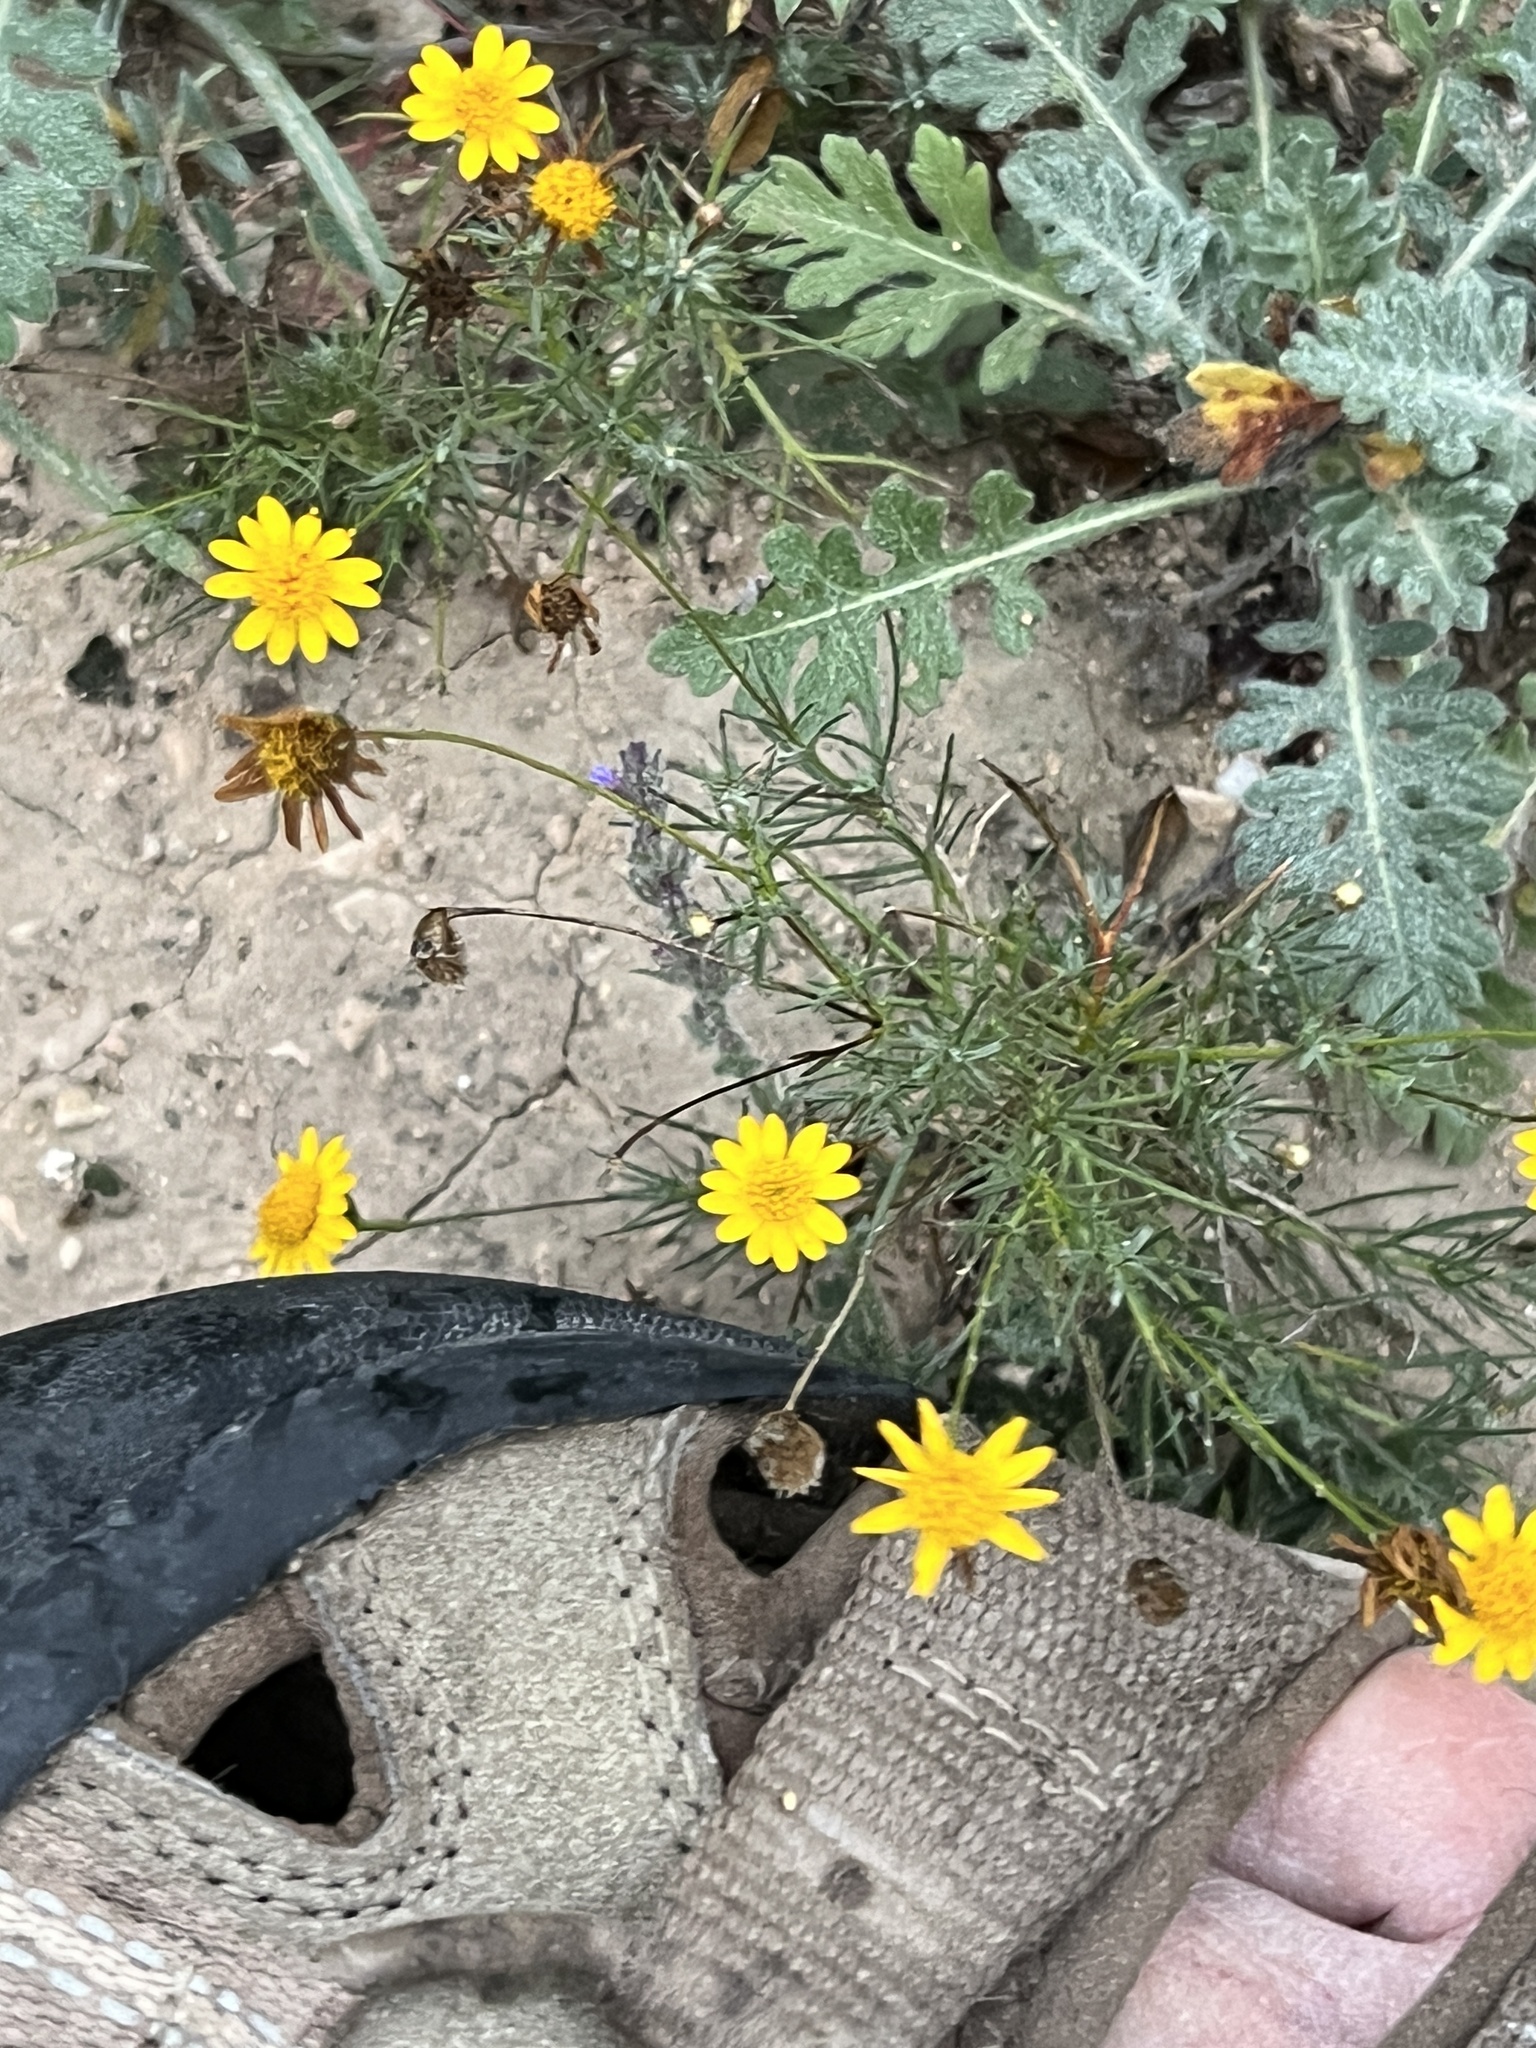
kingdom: Plantae
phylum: Tracheophyta
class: Magnoliopsida
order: Asterales
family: Asteraceae
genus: Thymophylla
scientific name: Thymophylla pentachaeta
